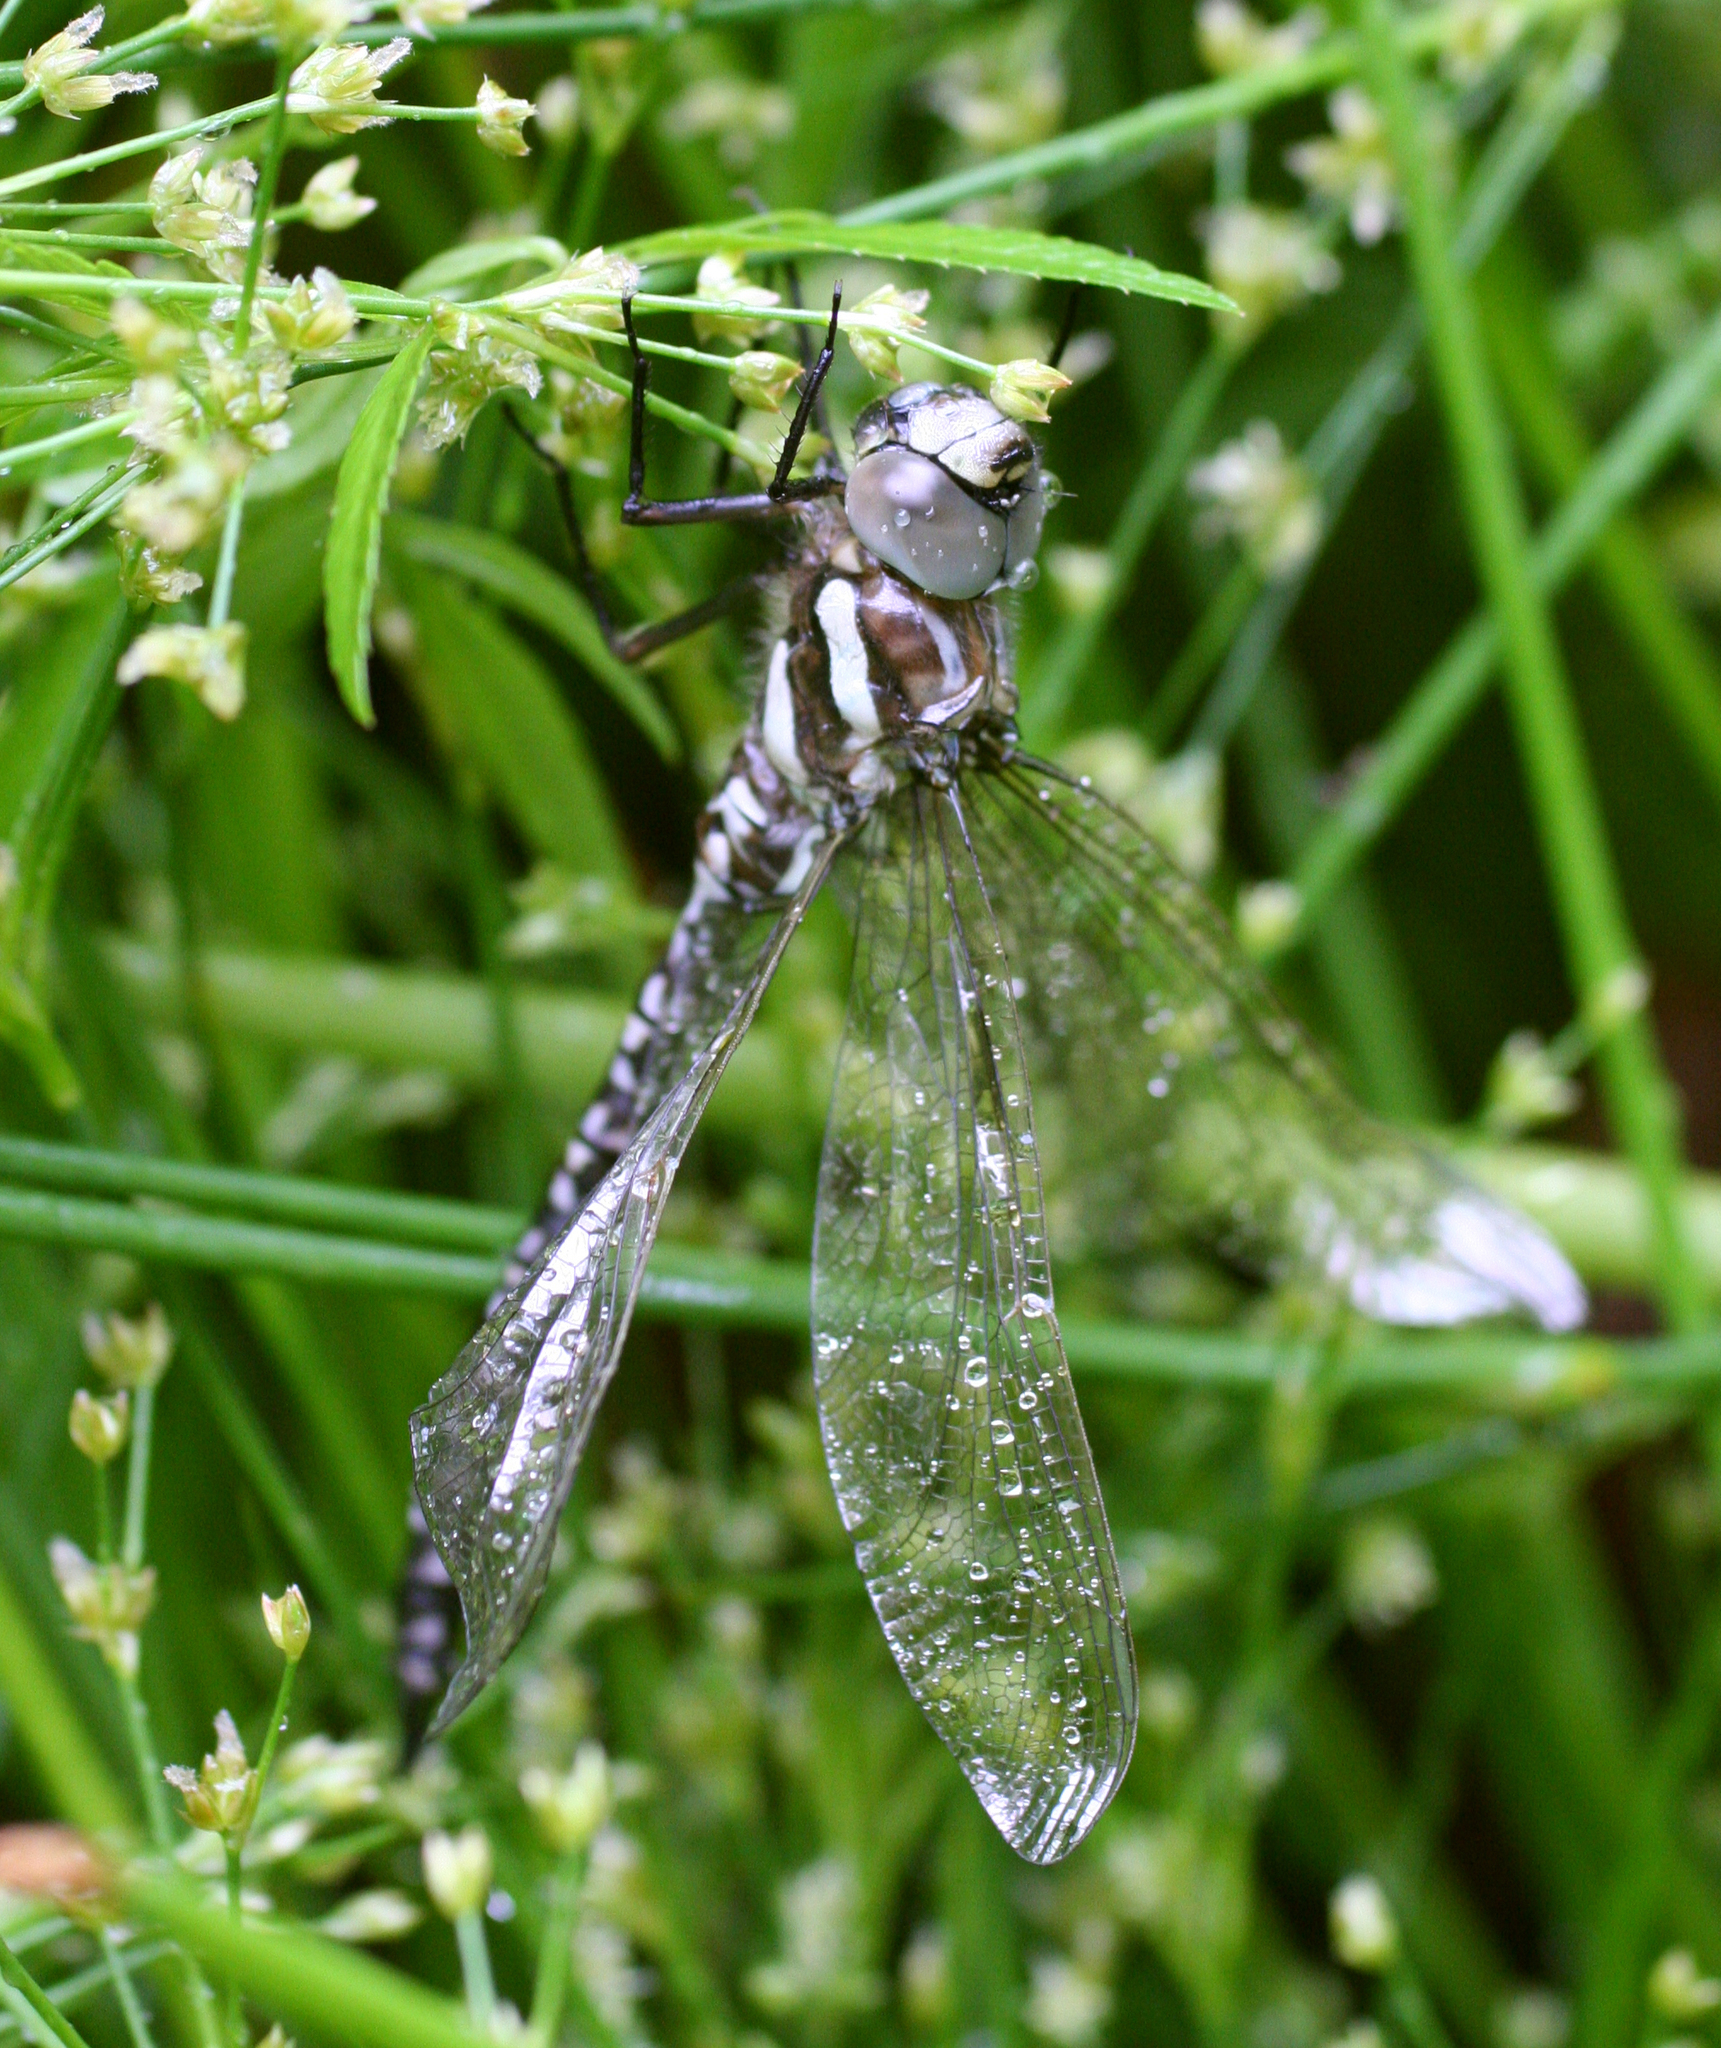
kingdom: Animalia
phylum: Arthropoda
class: Insecta
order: Odonata
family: Aeshnidae
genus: Aeshna
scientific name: Aeshna juncea
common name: Moorland hawker
